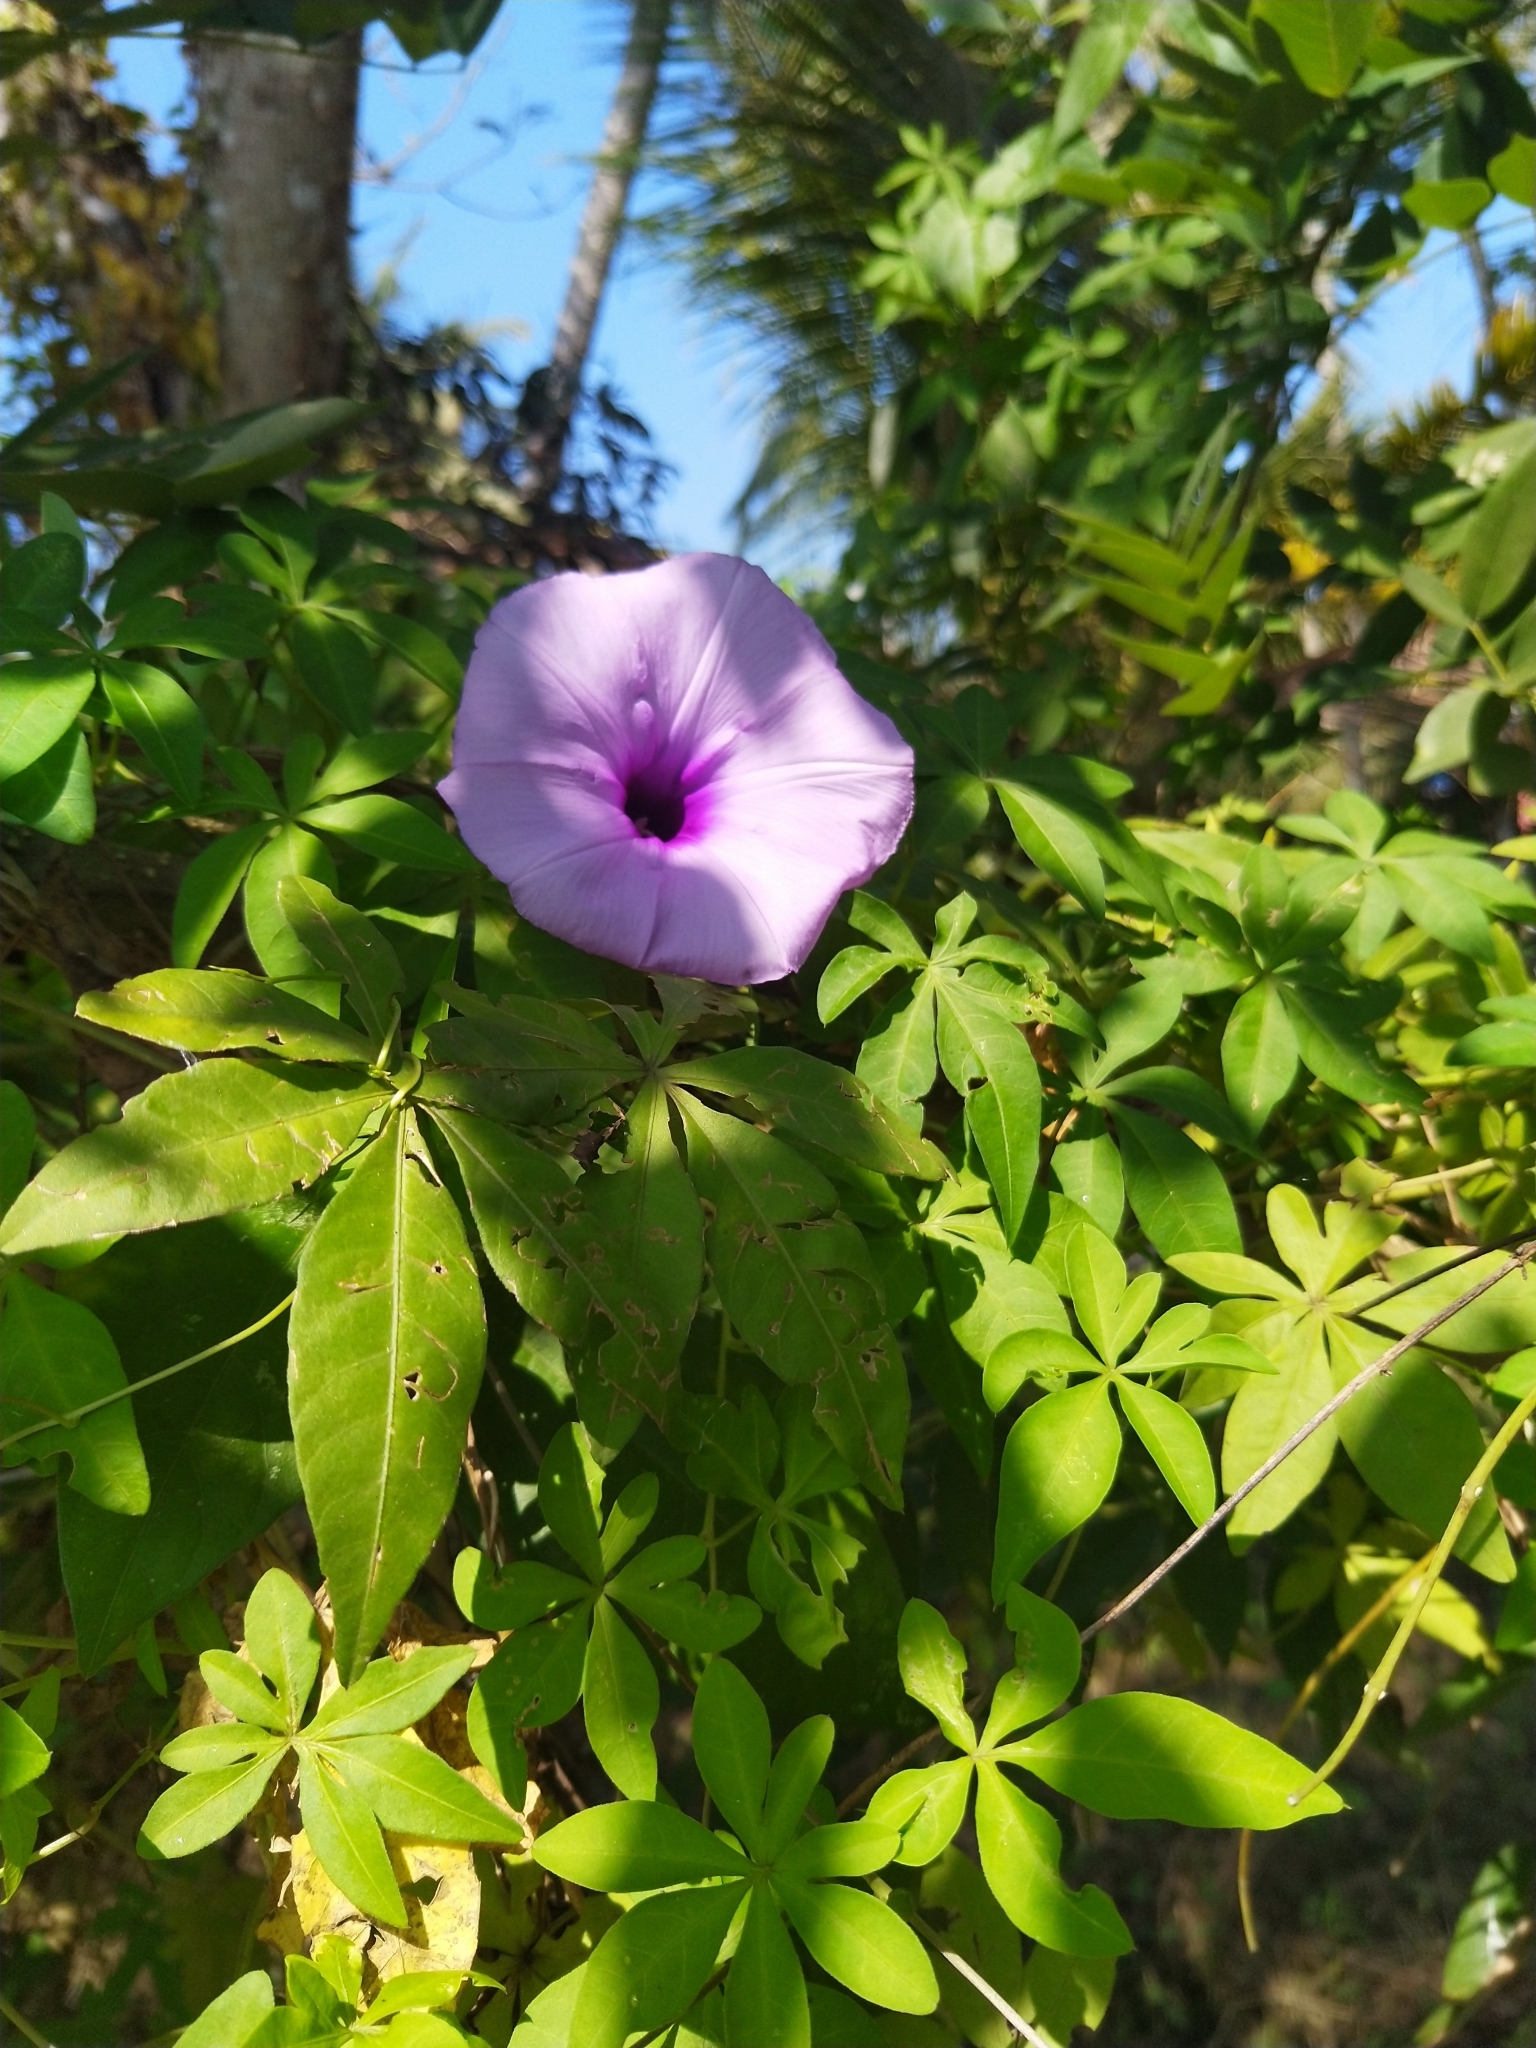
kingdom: Plantae
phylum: Tracheophyta
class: Magnoliopsida
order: Solanales
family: Convolvulaceae
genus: Ipomoea
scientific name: Ipomoea cairica
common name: Mile a minute vine
